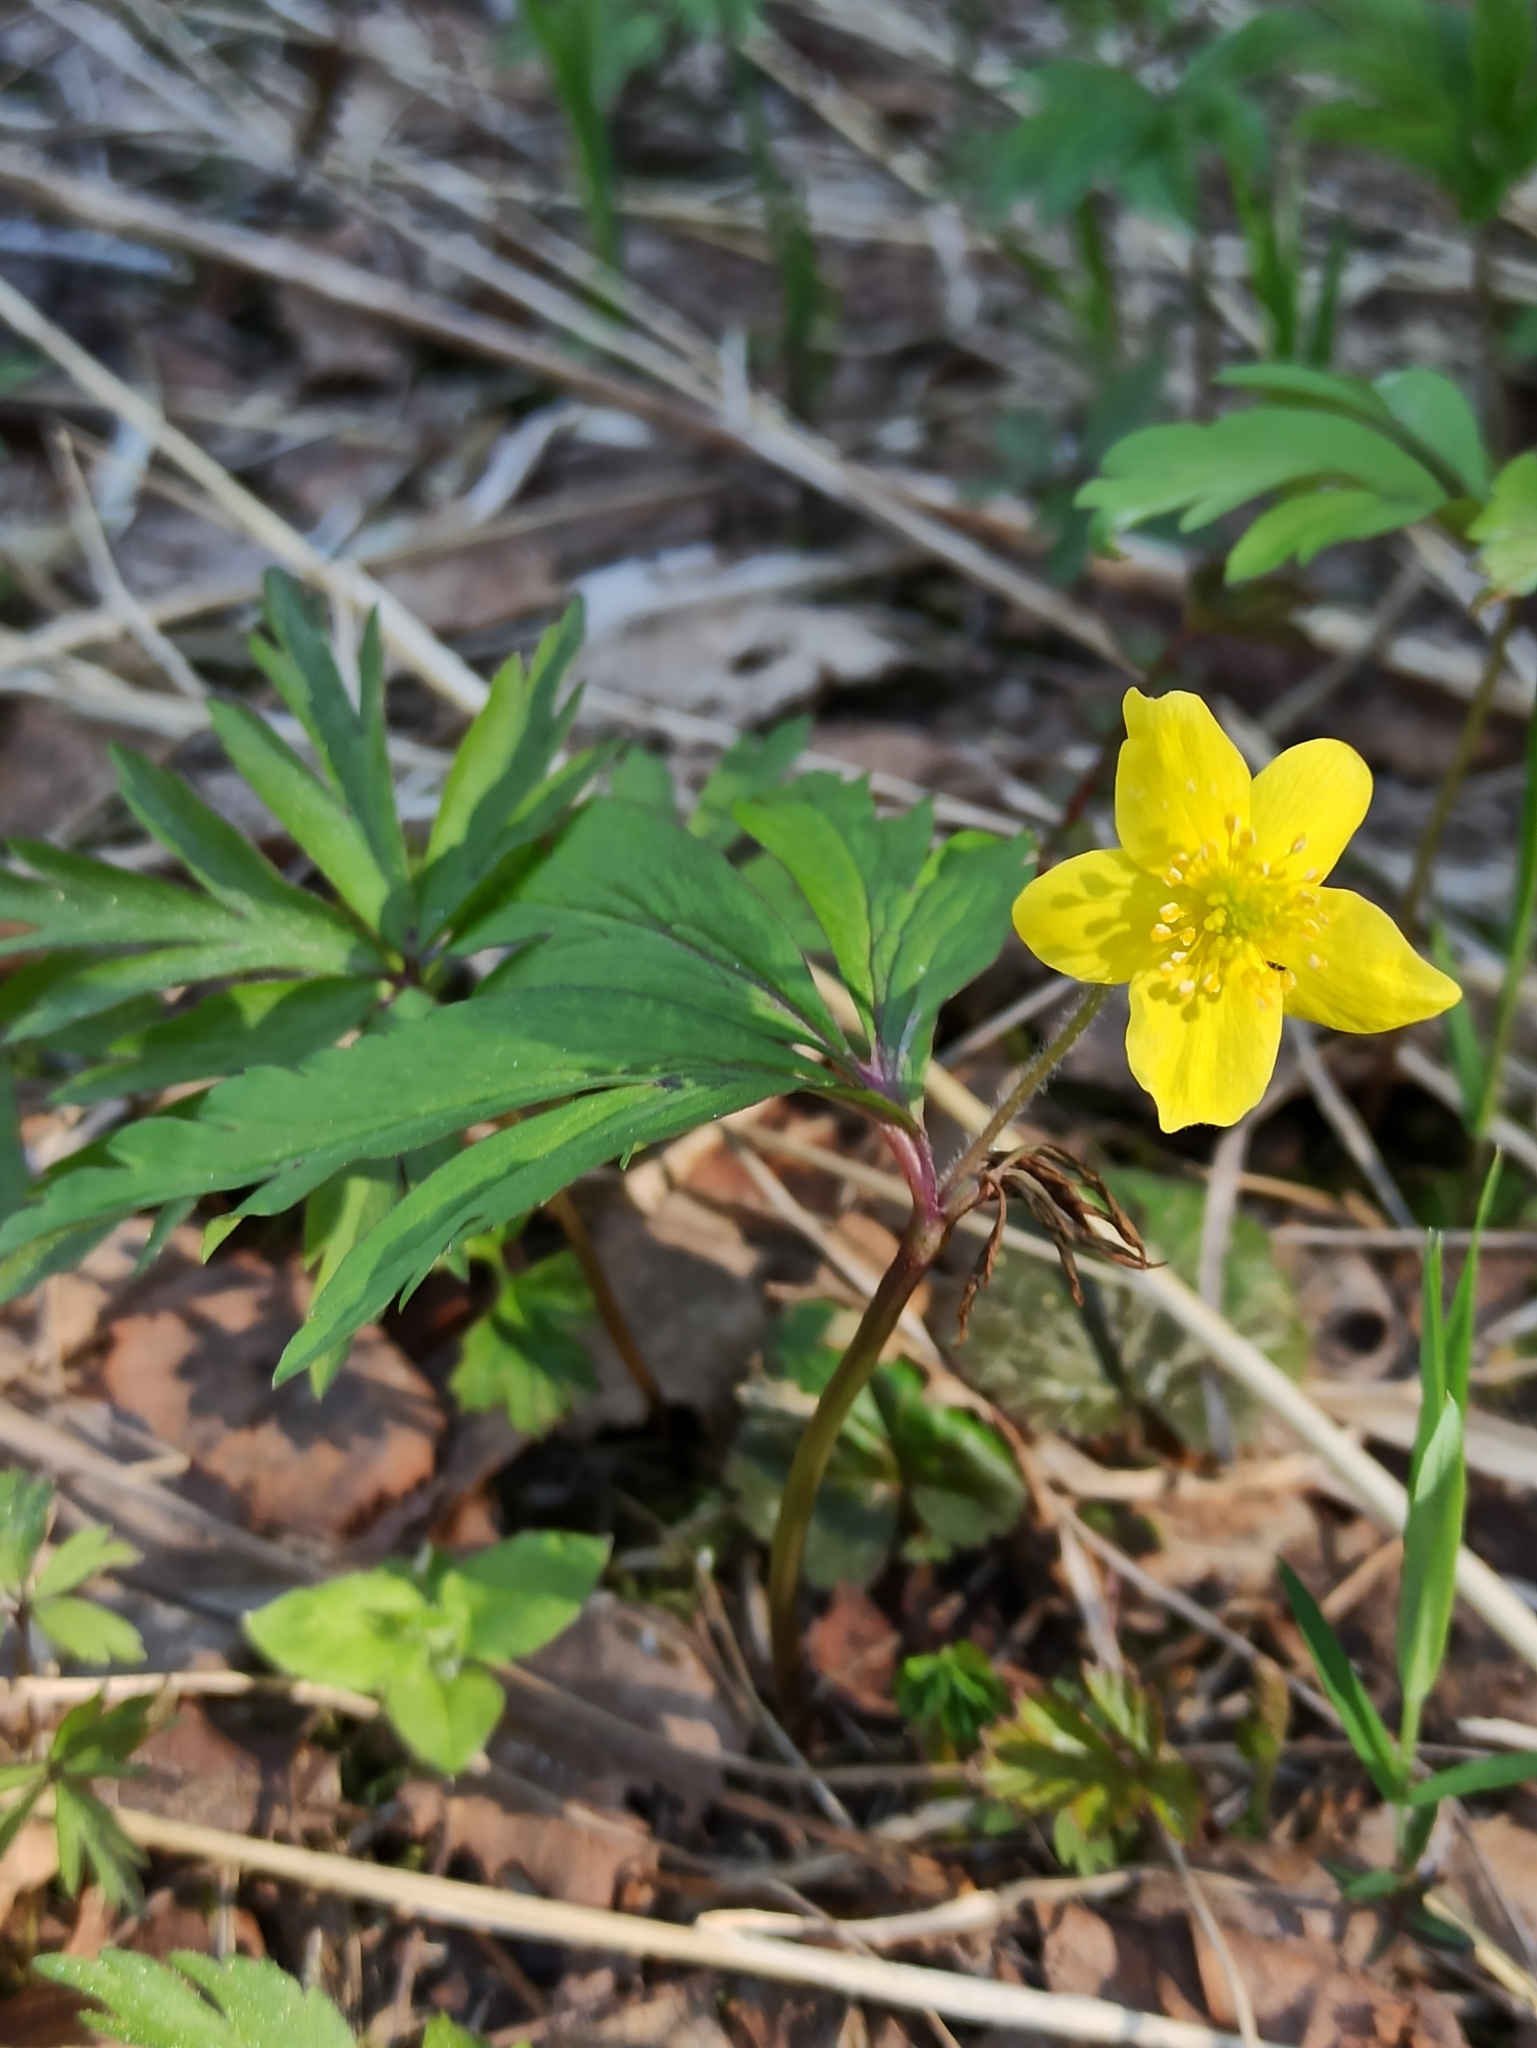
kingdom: Plantae
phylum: Tracheophyta
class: Magnoliopsida
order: Ranunculales
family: Ranunculaceae
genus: Anemone
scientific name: Anemone ranunculoides
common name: Yellow anemone
